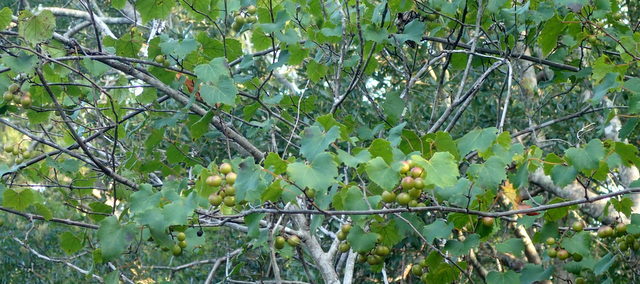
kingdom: Plantae
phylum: Tracheophyta
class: Magnoliopsida
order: Vitales
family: Vitaceae
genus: Vitis
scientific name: Vitis rotundifolia
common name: Muscadine grape
